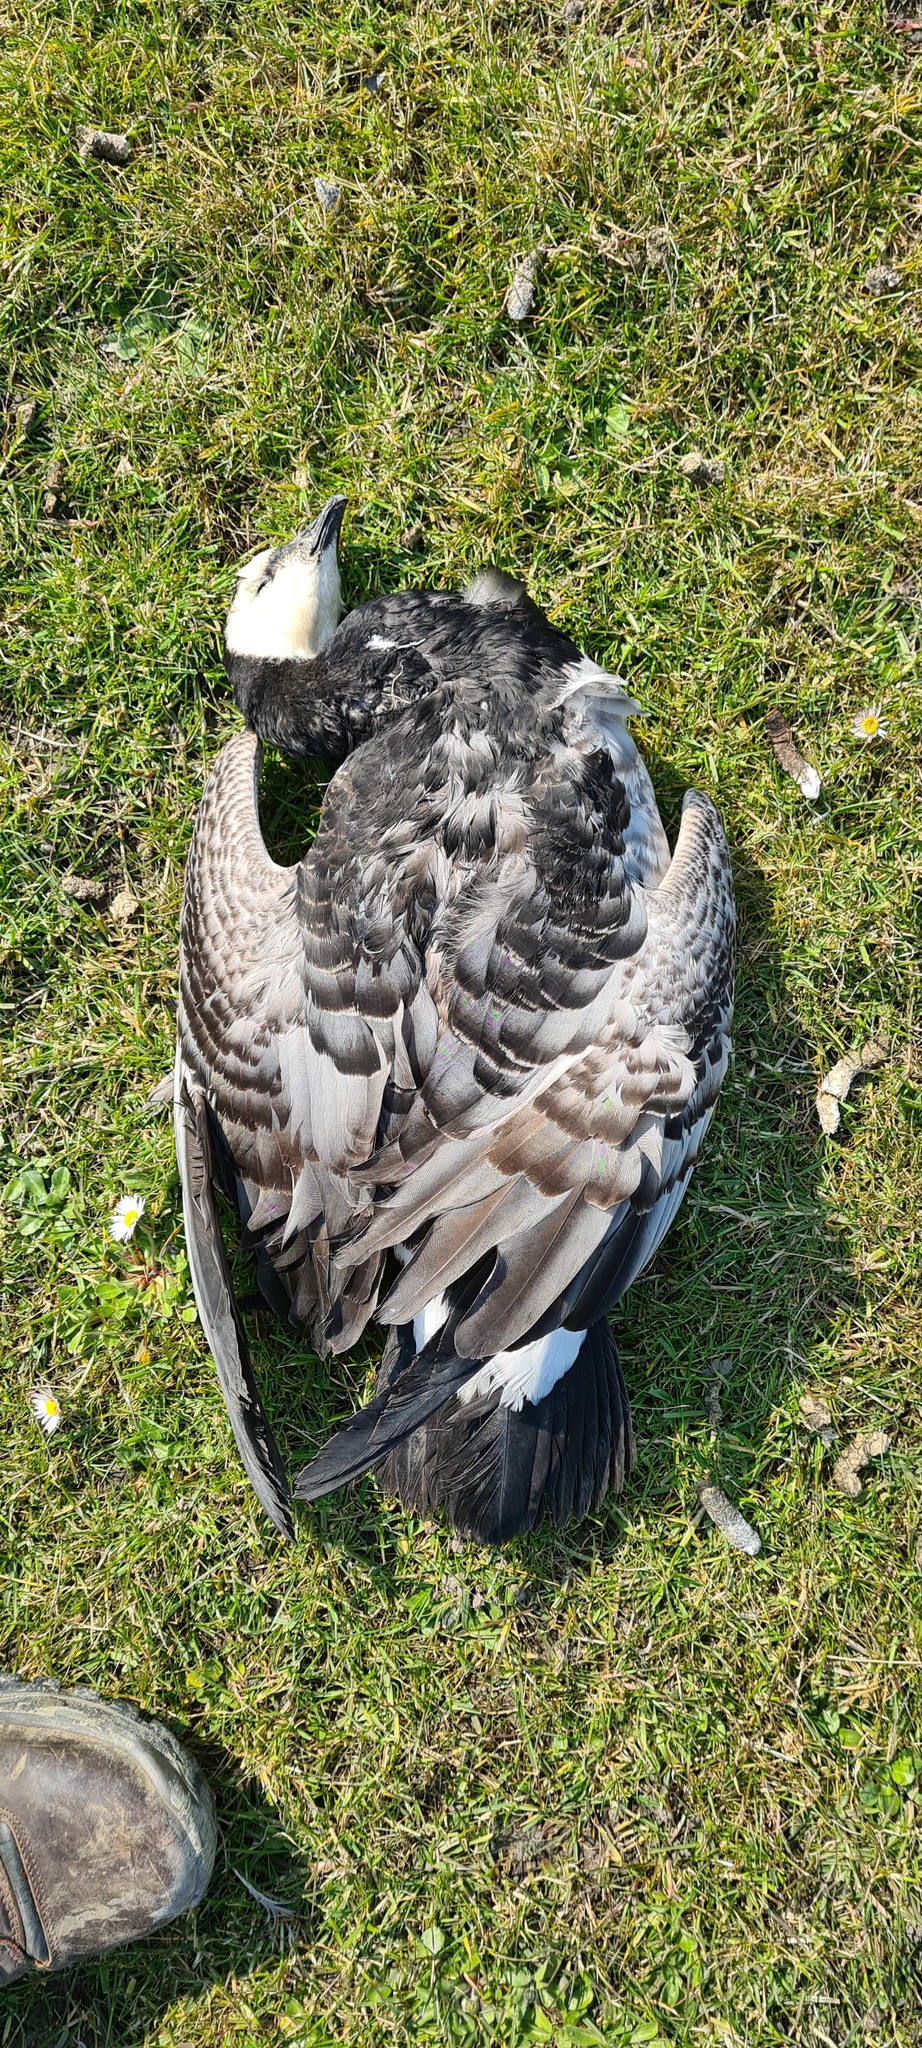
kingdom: Animalia
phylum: Chordata
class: Aves
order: Anseriformes
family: Anatidae
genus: Branta
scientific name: Branta leucopsis
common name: Barnacle goose
